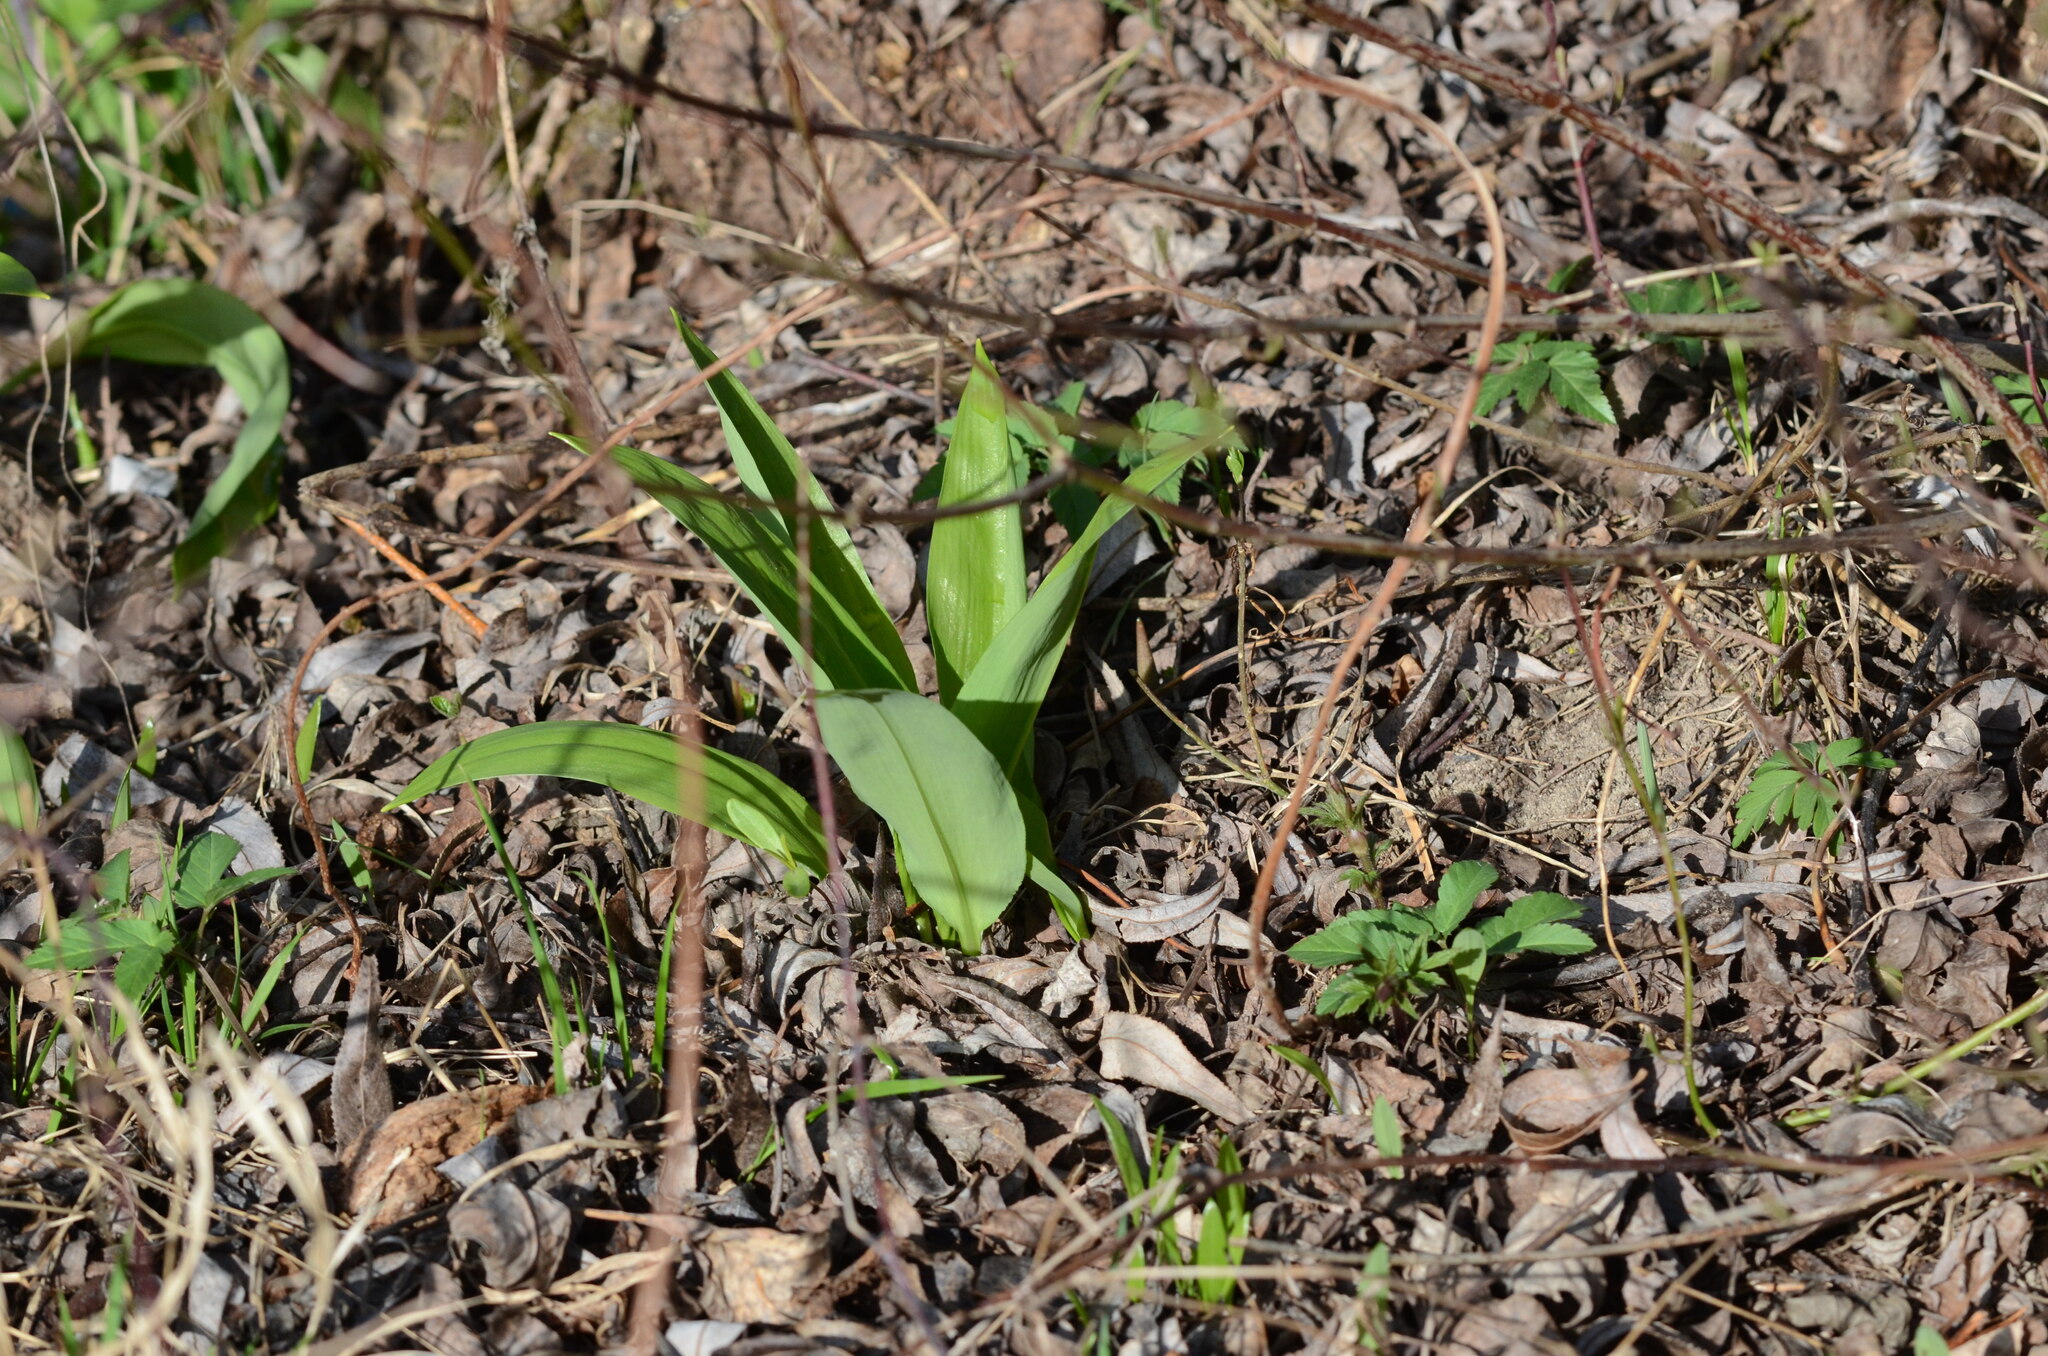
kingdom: Plantae
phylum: Tracheophyta
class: Liliopsida
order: Asparagales
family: Amaryllidaceae
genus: Allium
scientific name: Allium ursinum
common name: Ramsons
